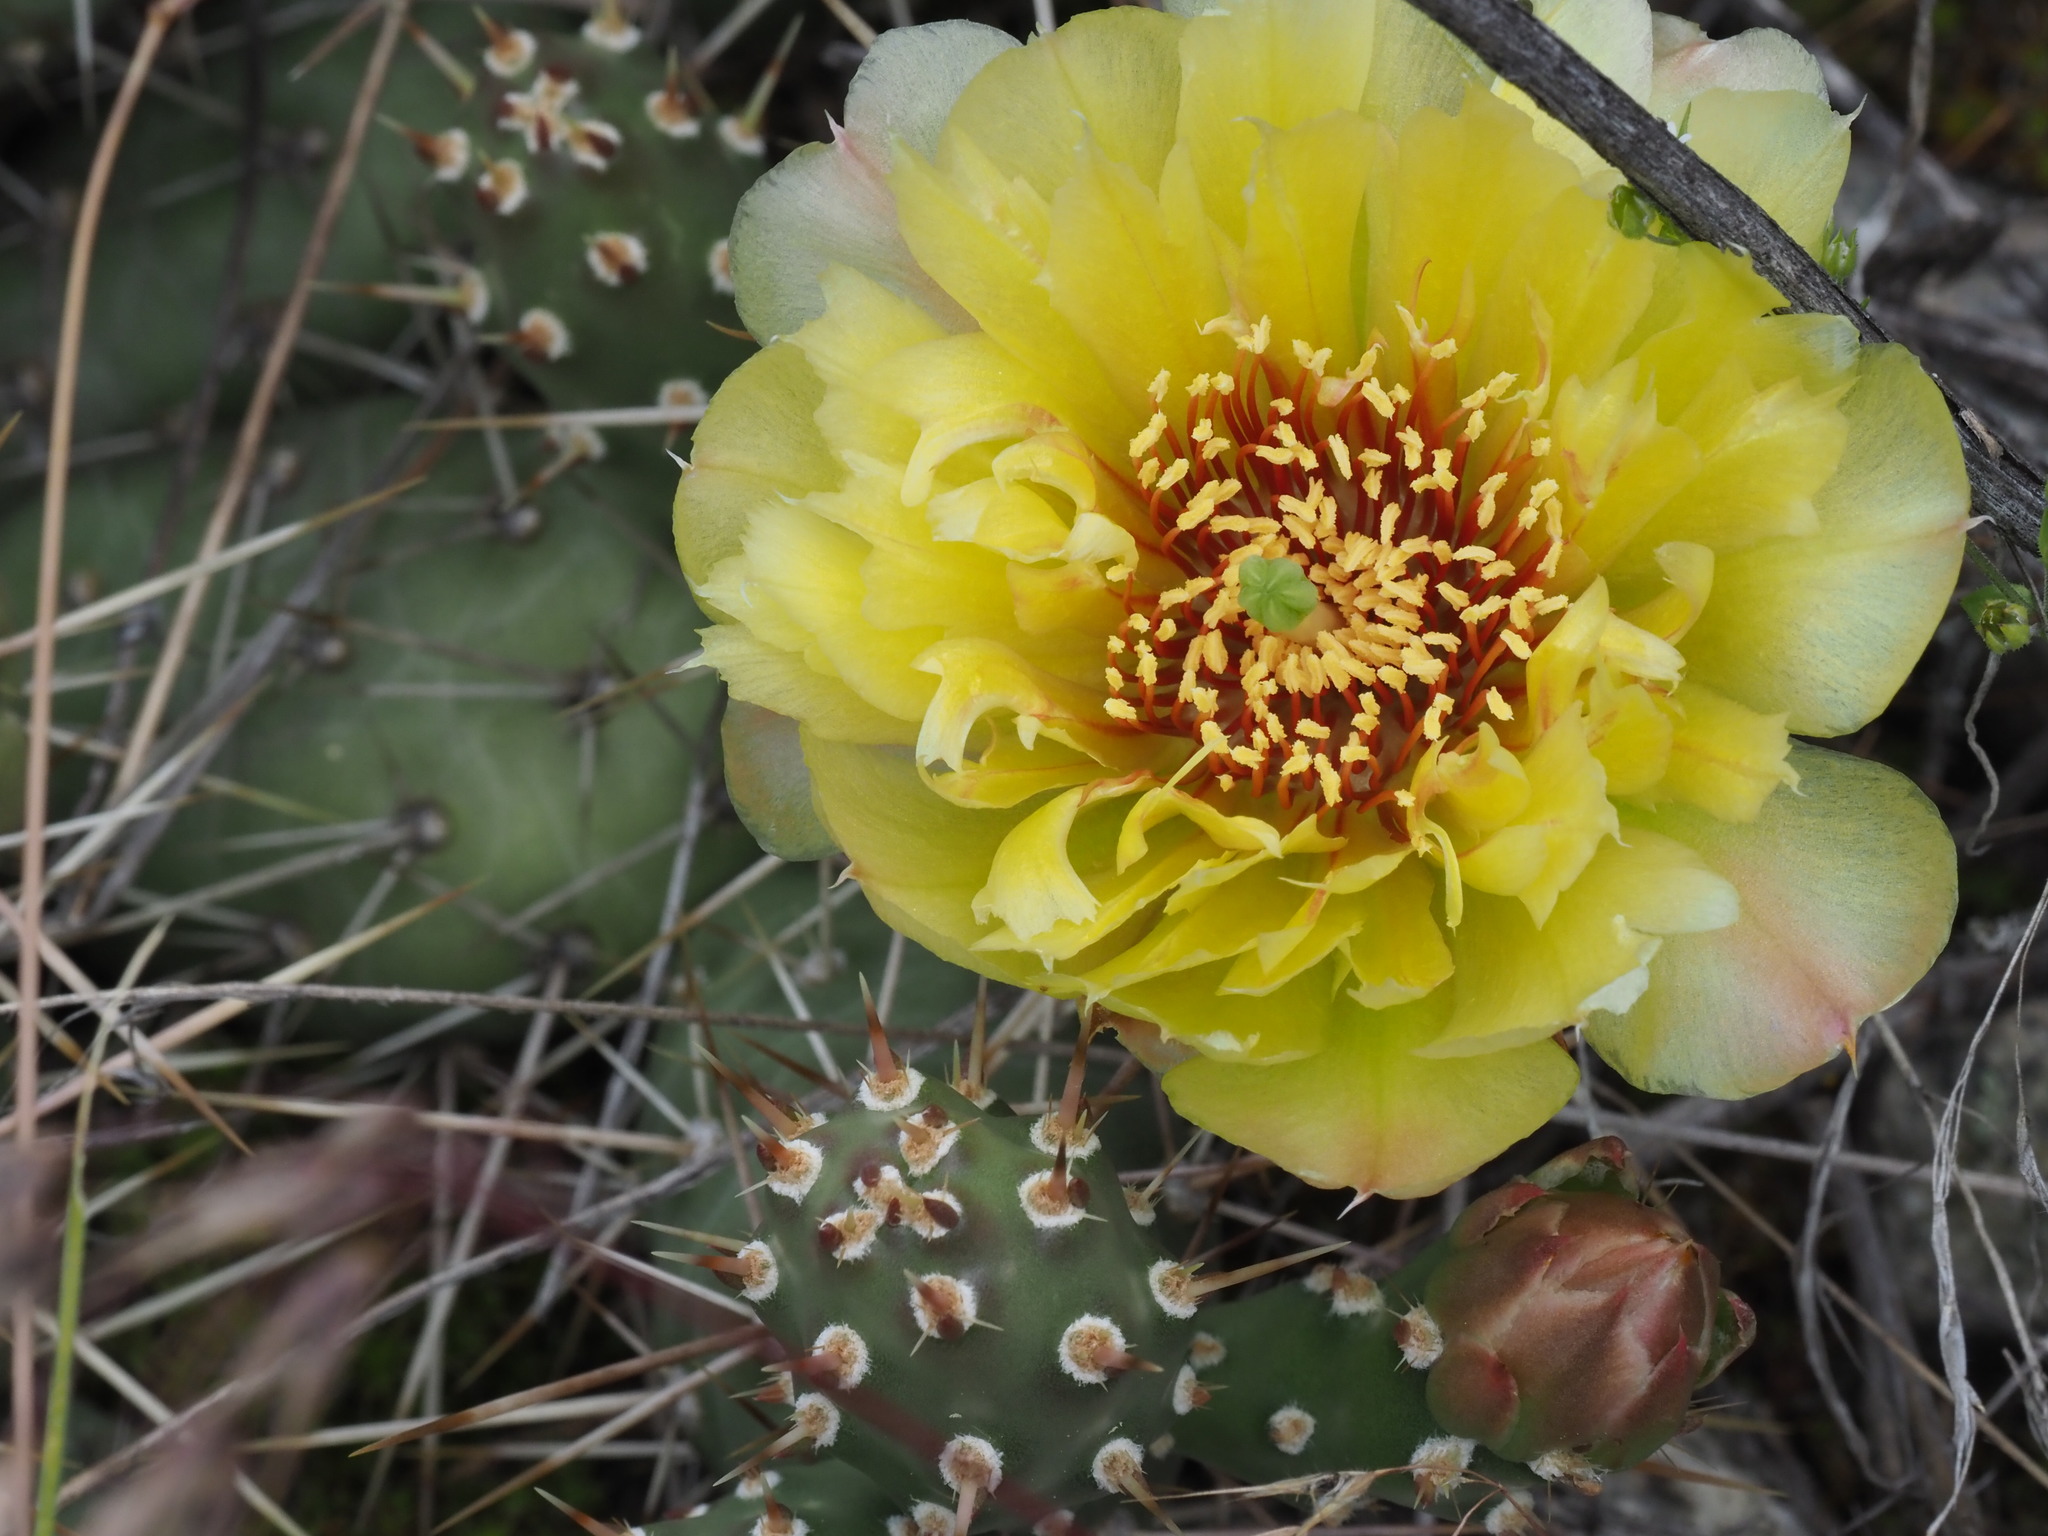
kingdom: Plantae
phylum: Tracheophyta
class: Magnoliopsida
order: Caryophyllales
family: Cactaceae
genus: Opuntia
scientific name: Opuntia fragilis
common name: Brittle cactus
